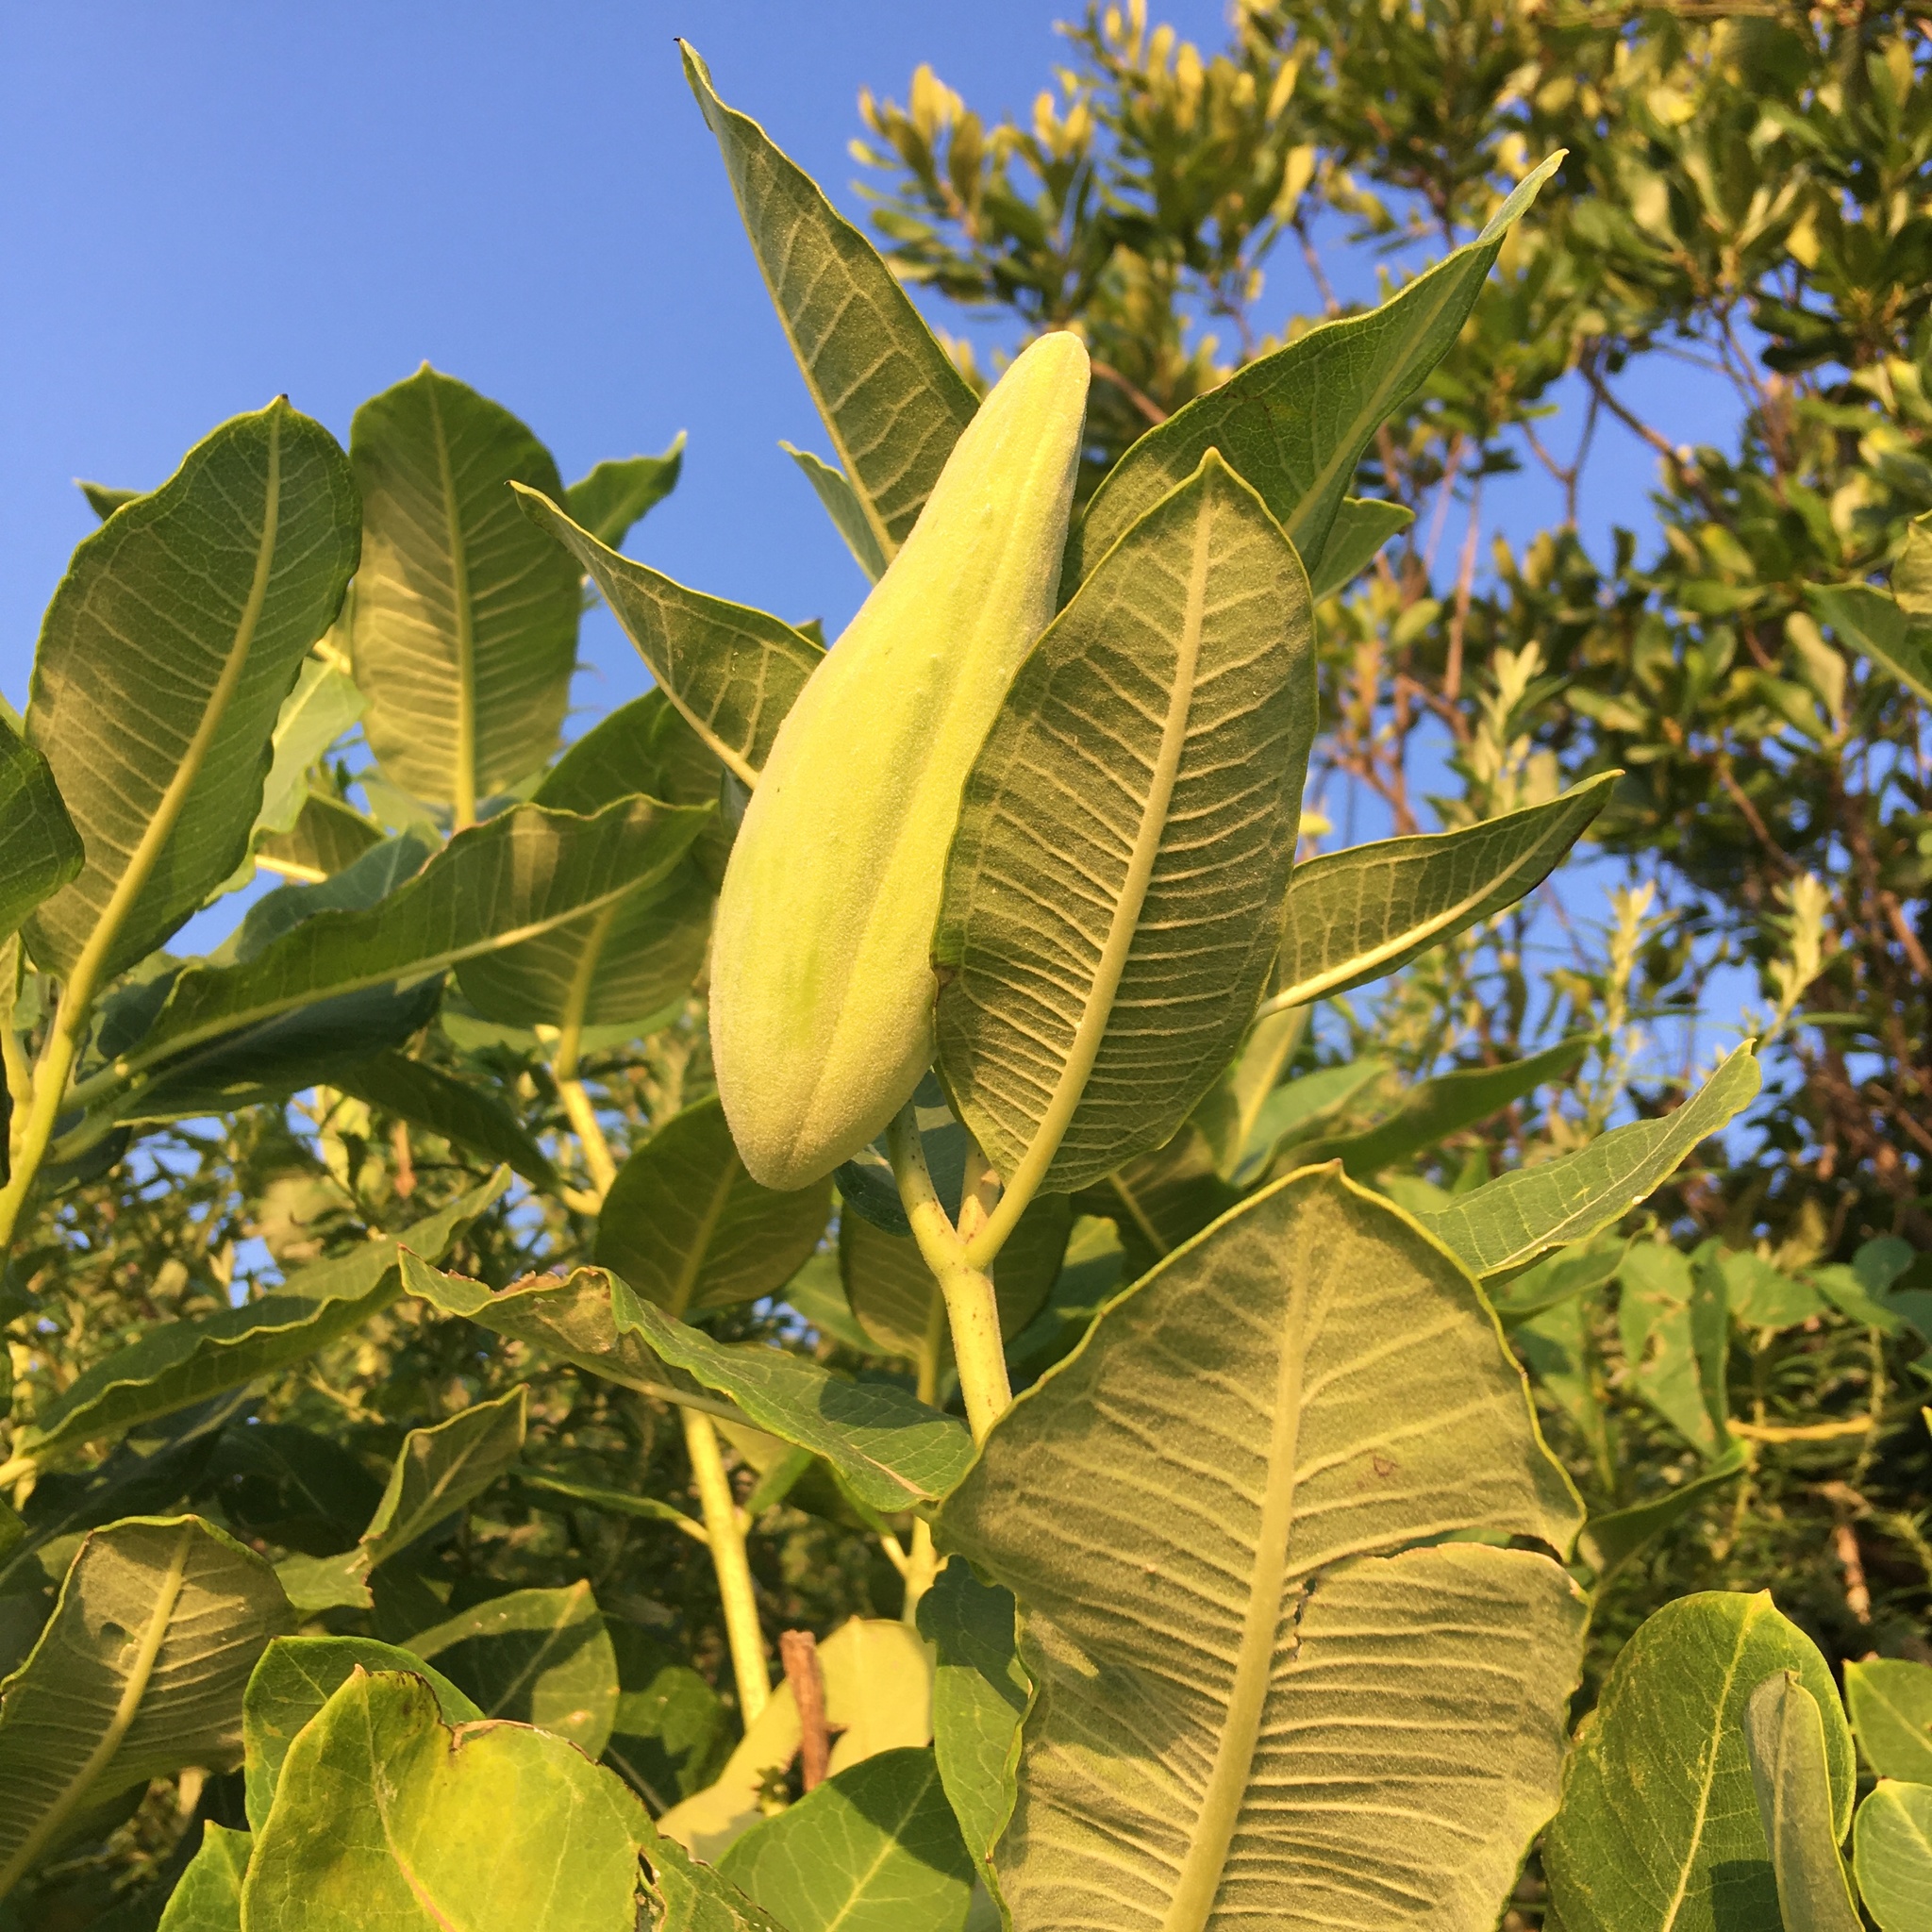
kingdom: Plantae
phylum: Tracheophyta
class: Magnoliopsida
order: Gentianales
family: Apocynaceae
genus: Asclepias
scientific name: Asclepias syriaca
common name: Common milkweed
